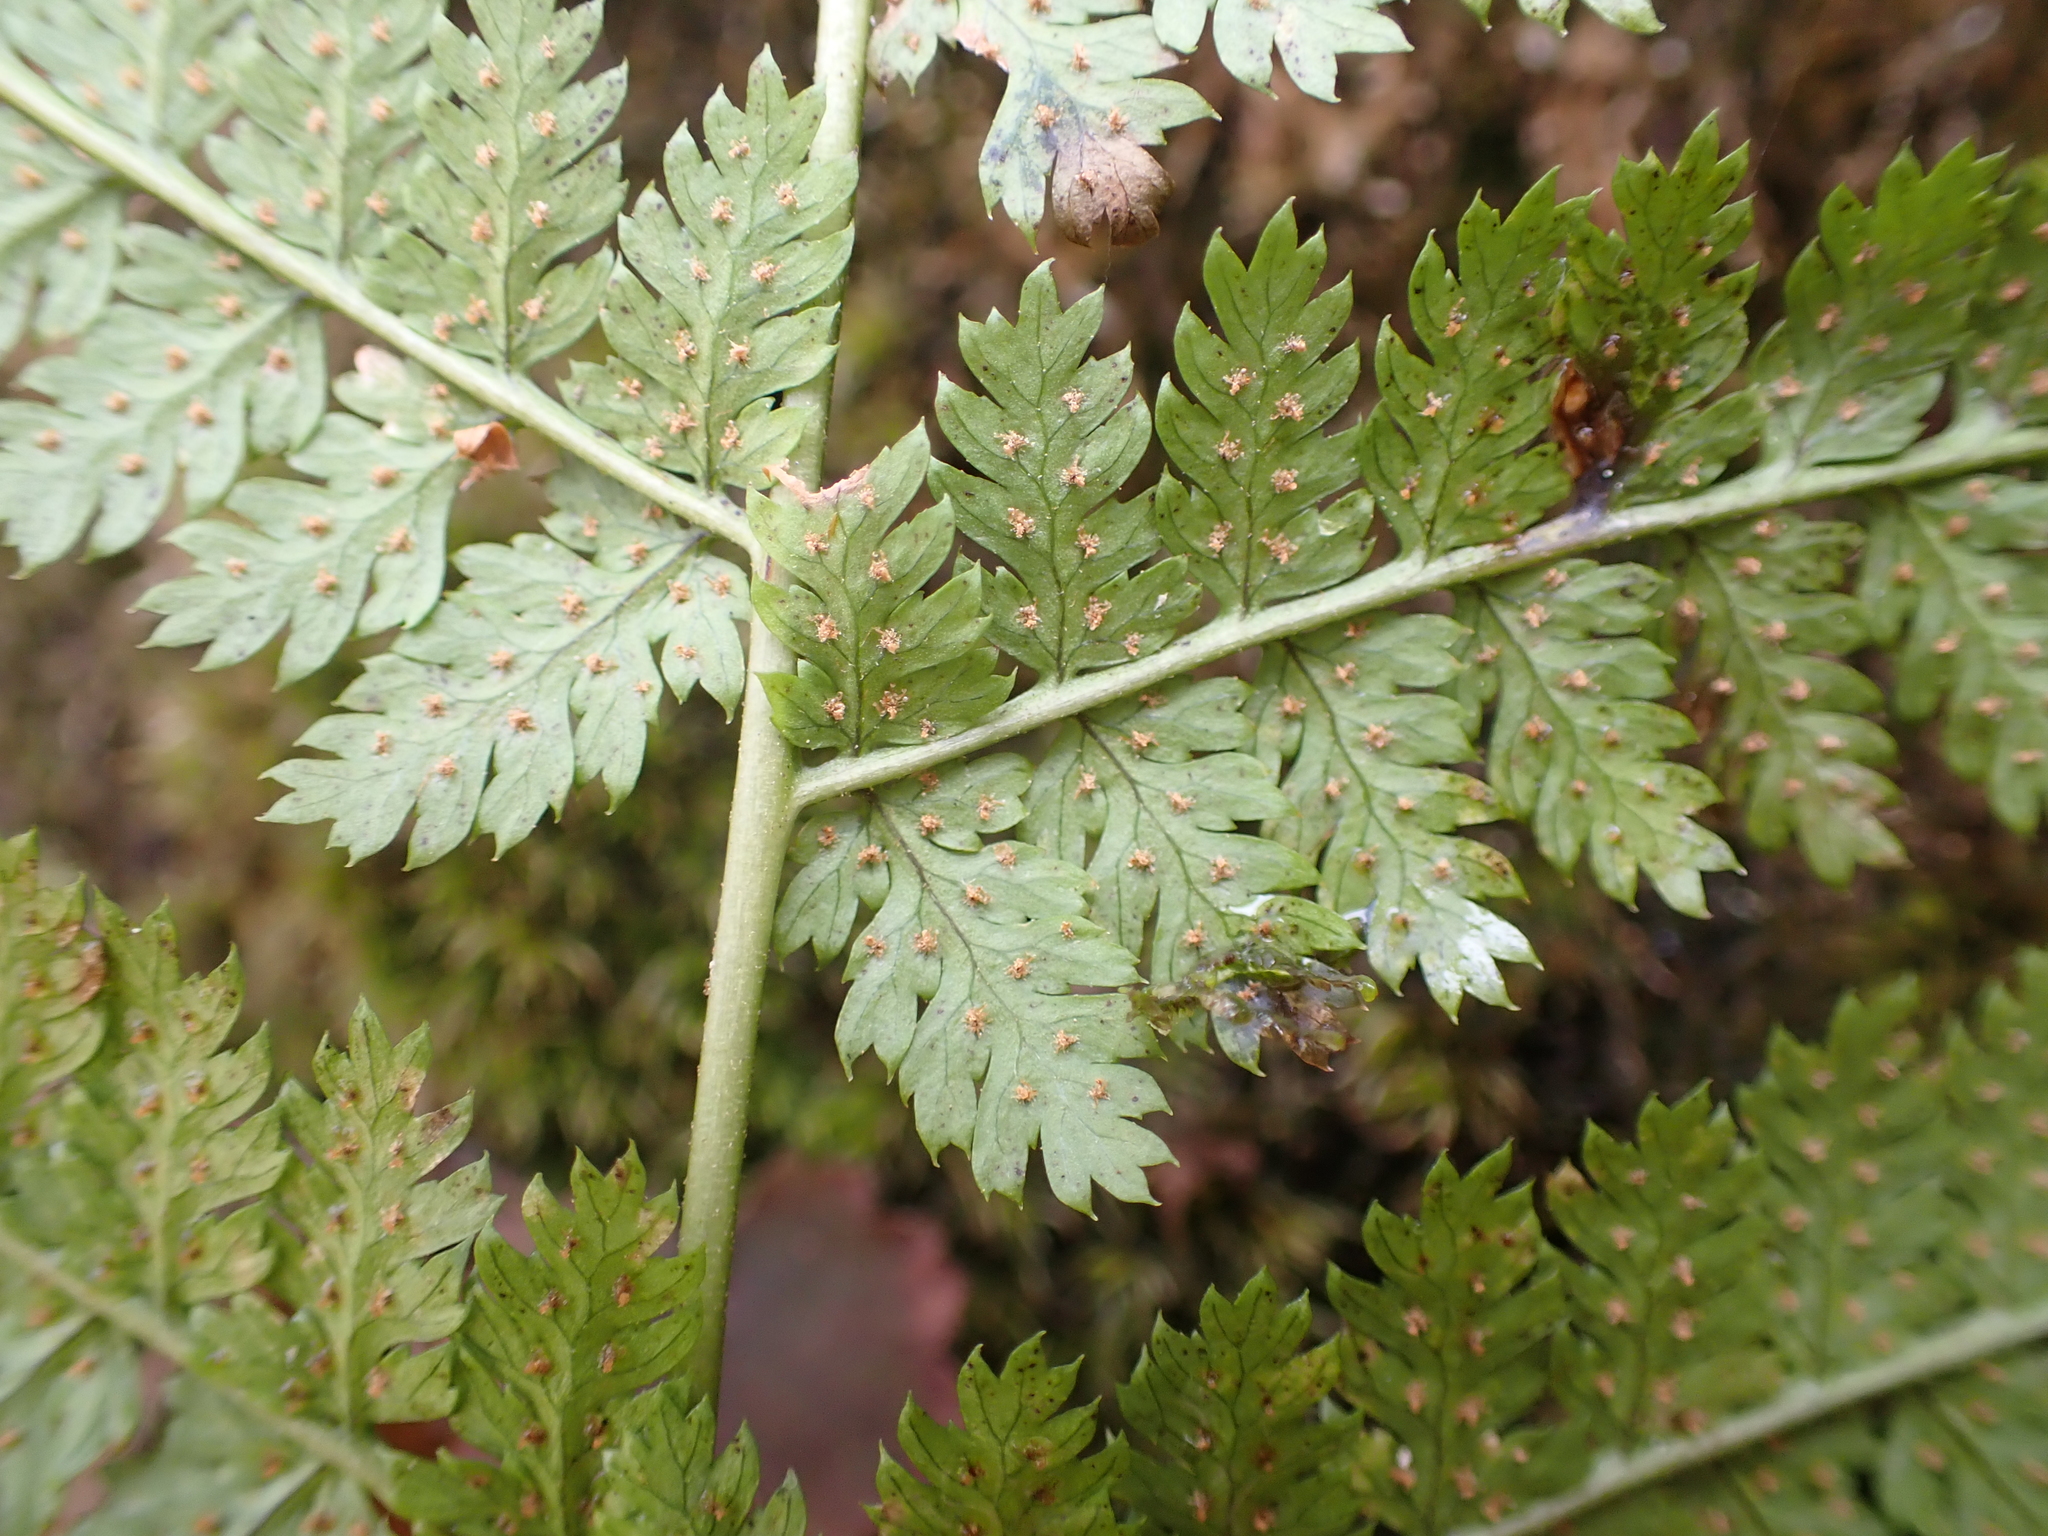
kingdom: Plantae
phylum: Tracheophyta
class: Polypodiopsida
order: Polypodiales
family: Dryopteridaceae
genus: Dryopteris
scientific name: Dryopteris intermedia
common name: Evergreen wood fern
